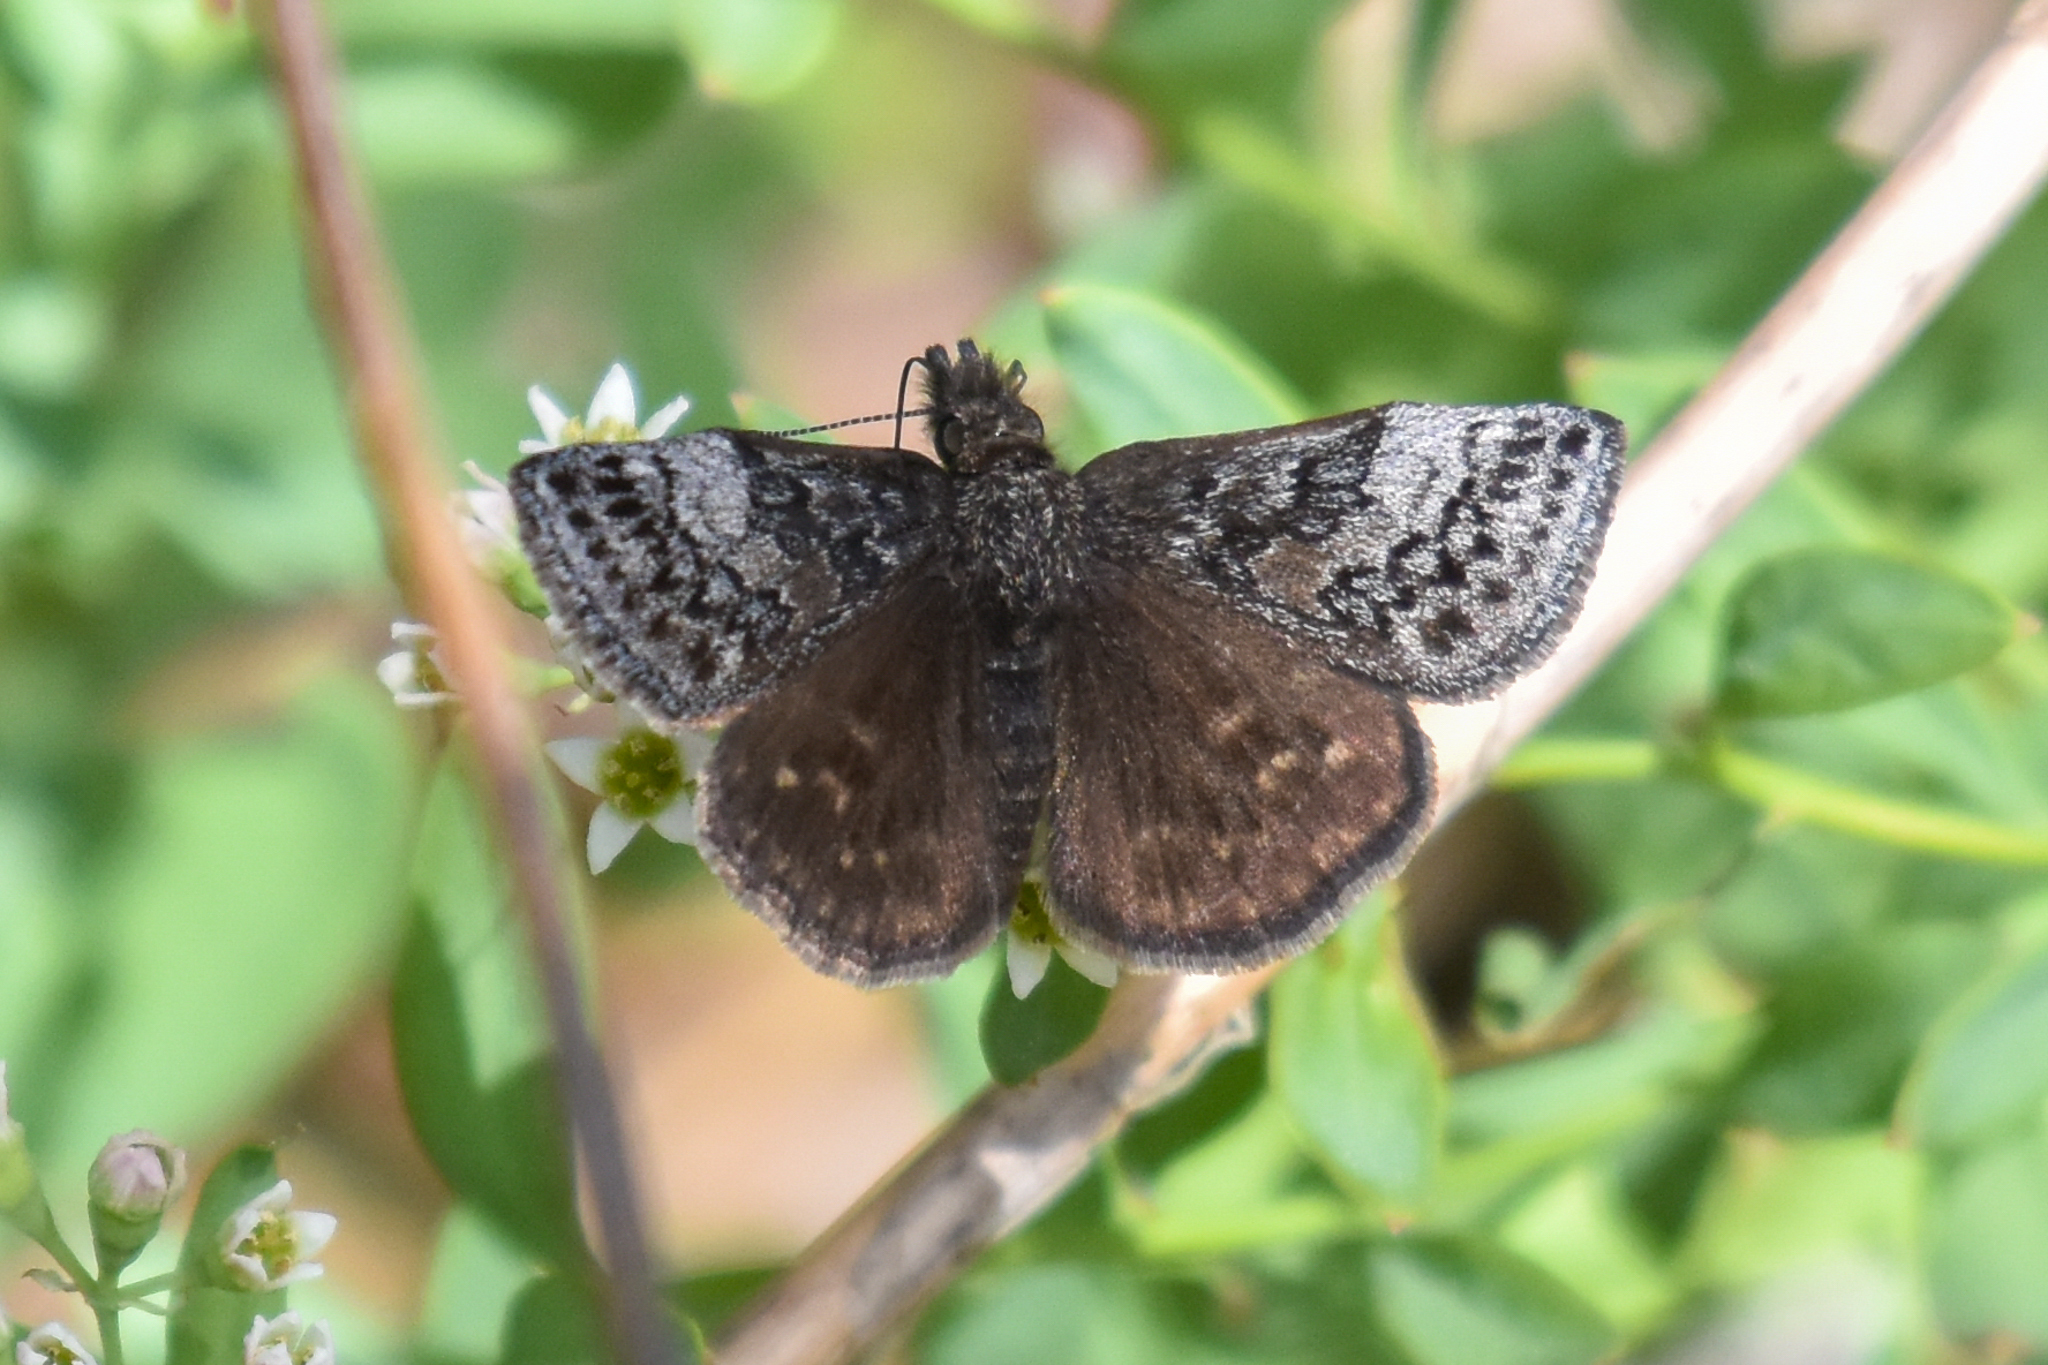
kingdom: Animalia
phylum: Arthropoda
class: Insecta
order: Lepidoptera
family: Hesperiidae
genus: Erynnis
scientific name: Erynnis icelus
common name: Dreamy duskywing
